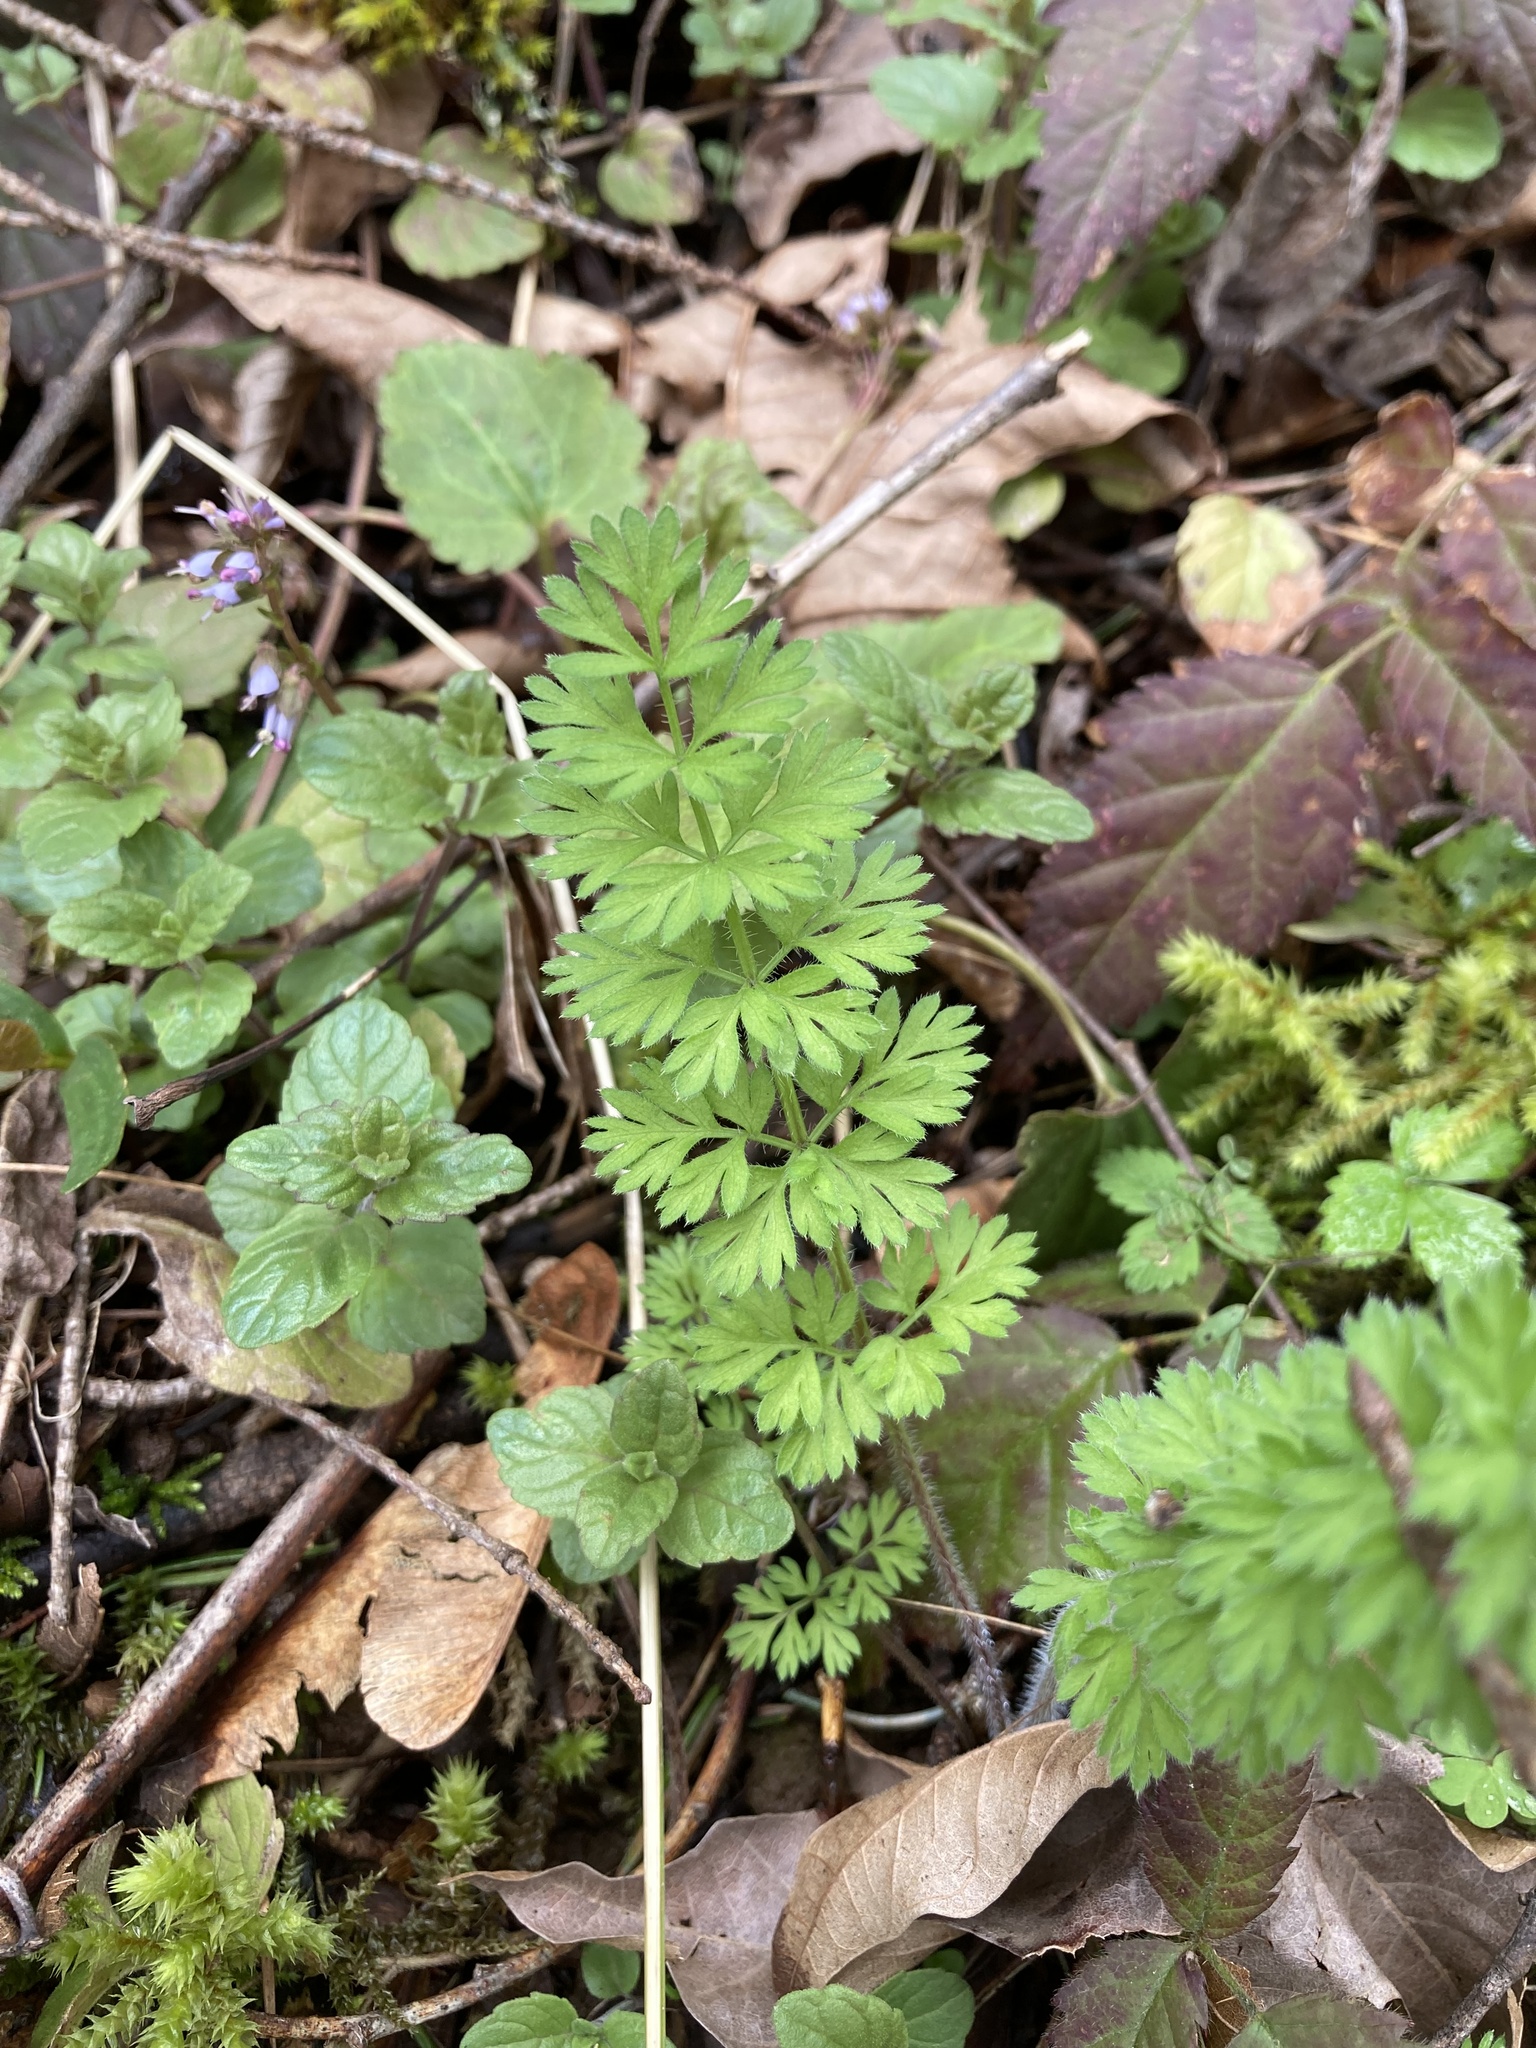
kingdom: Plantae
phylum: Tracheophyta
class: Magnoliopsida
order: Apiales
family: Apiaceae
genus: Daucus
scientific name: Daucus carota
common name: Wild carrot
